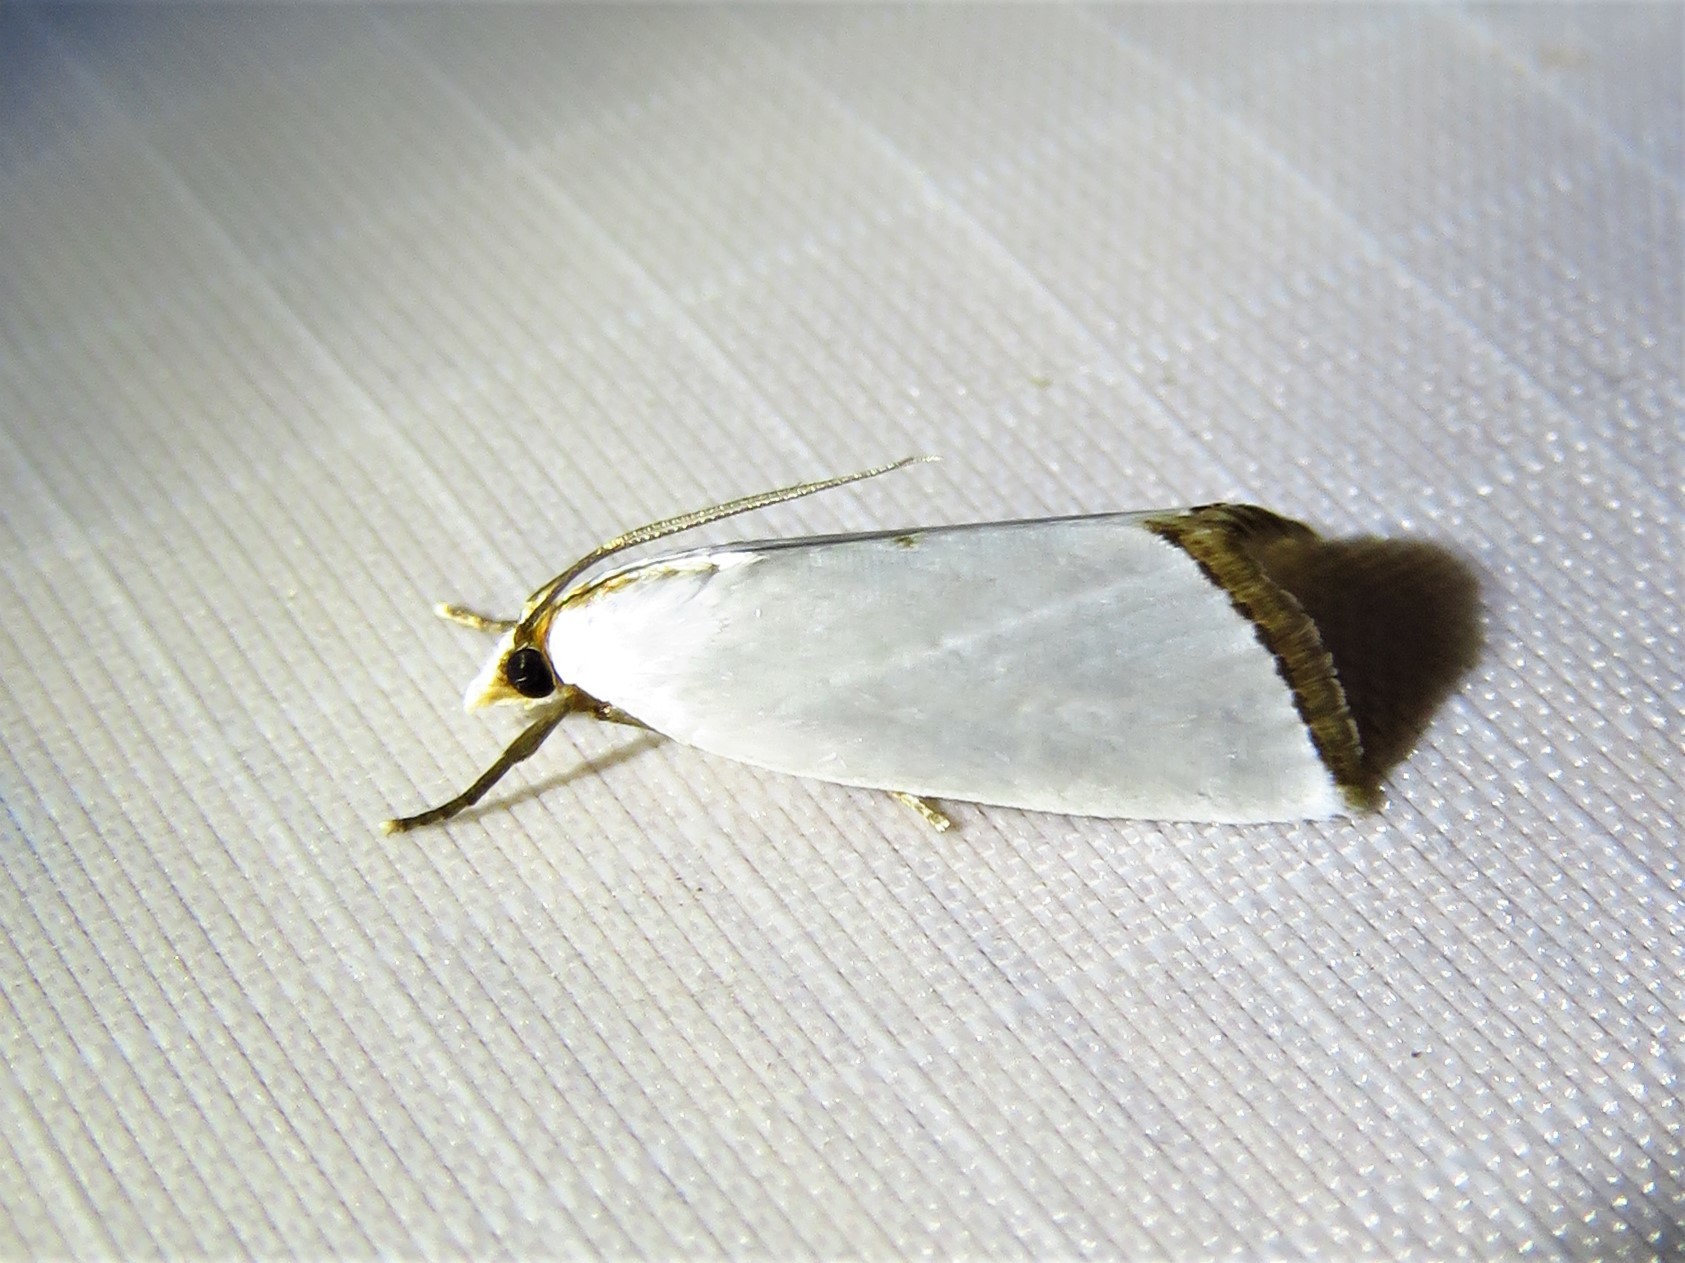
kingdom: Animalia
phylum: Arthropoda
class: Insecta
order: Lepidoptera
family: Crambidae
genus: Argyria
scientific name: Argyria nivalis
